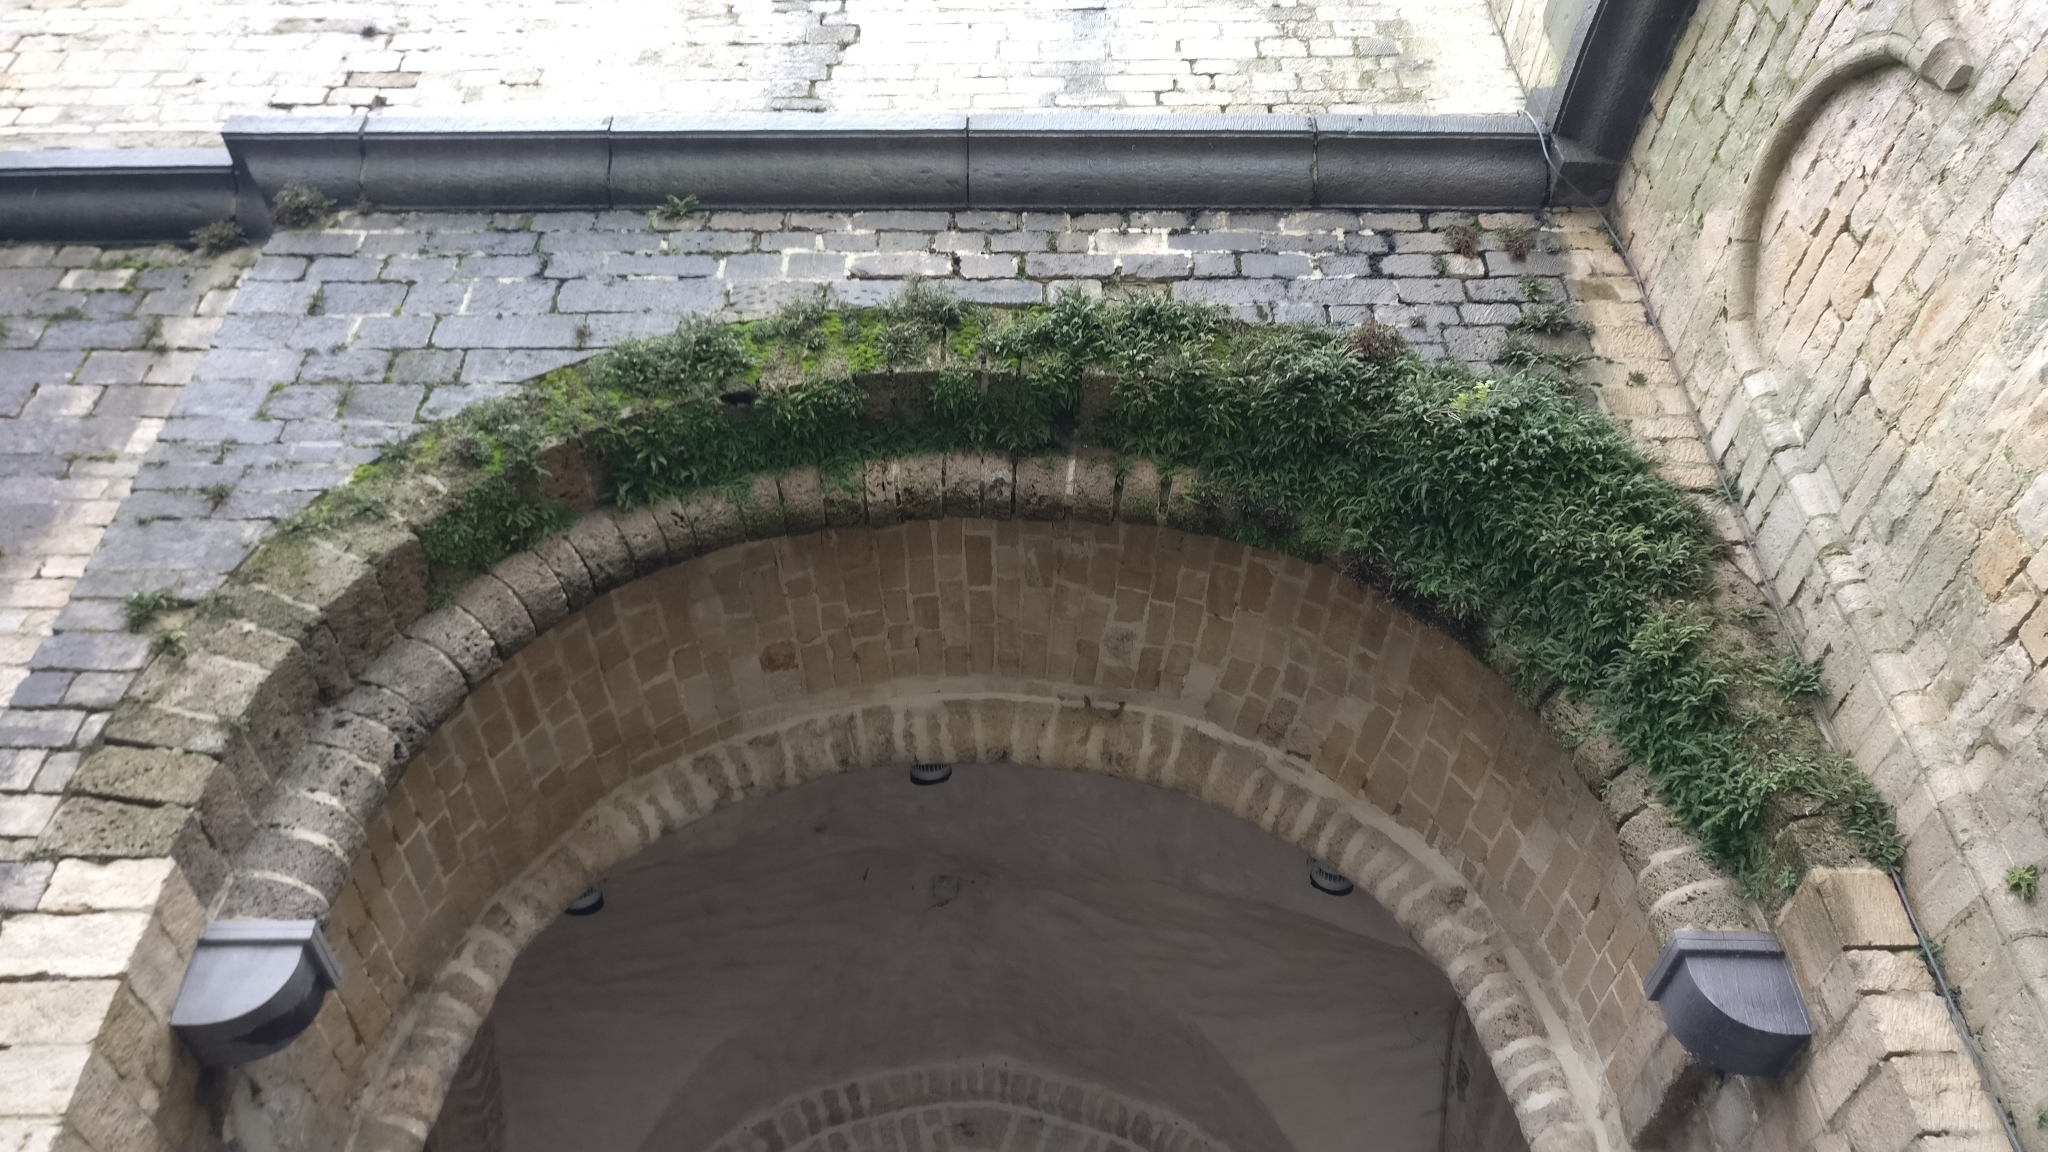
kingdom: Plantae
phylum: Tracheophyta
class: Polypodiopsida
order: Polypodiales
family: Aspleniaceae
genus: Asplenium
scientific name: Asplenium ruta-muraria
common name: Wall-rue
